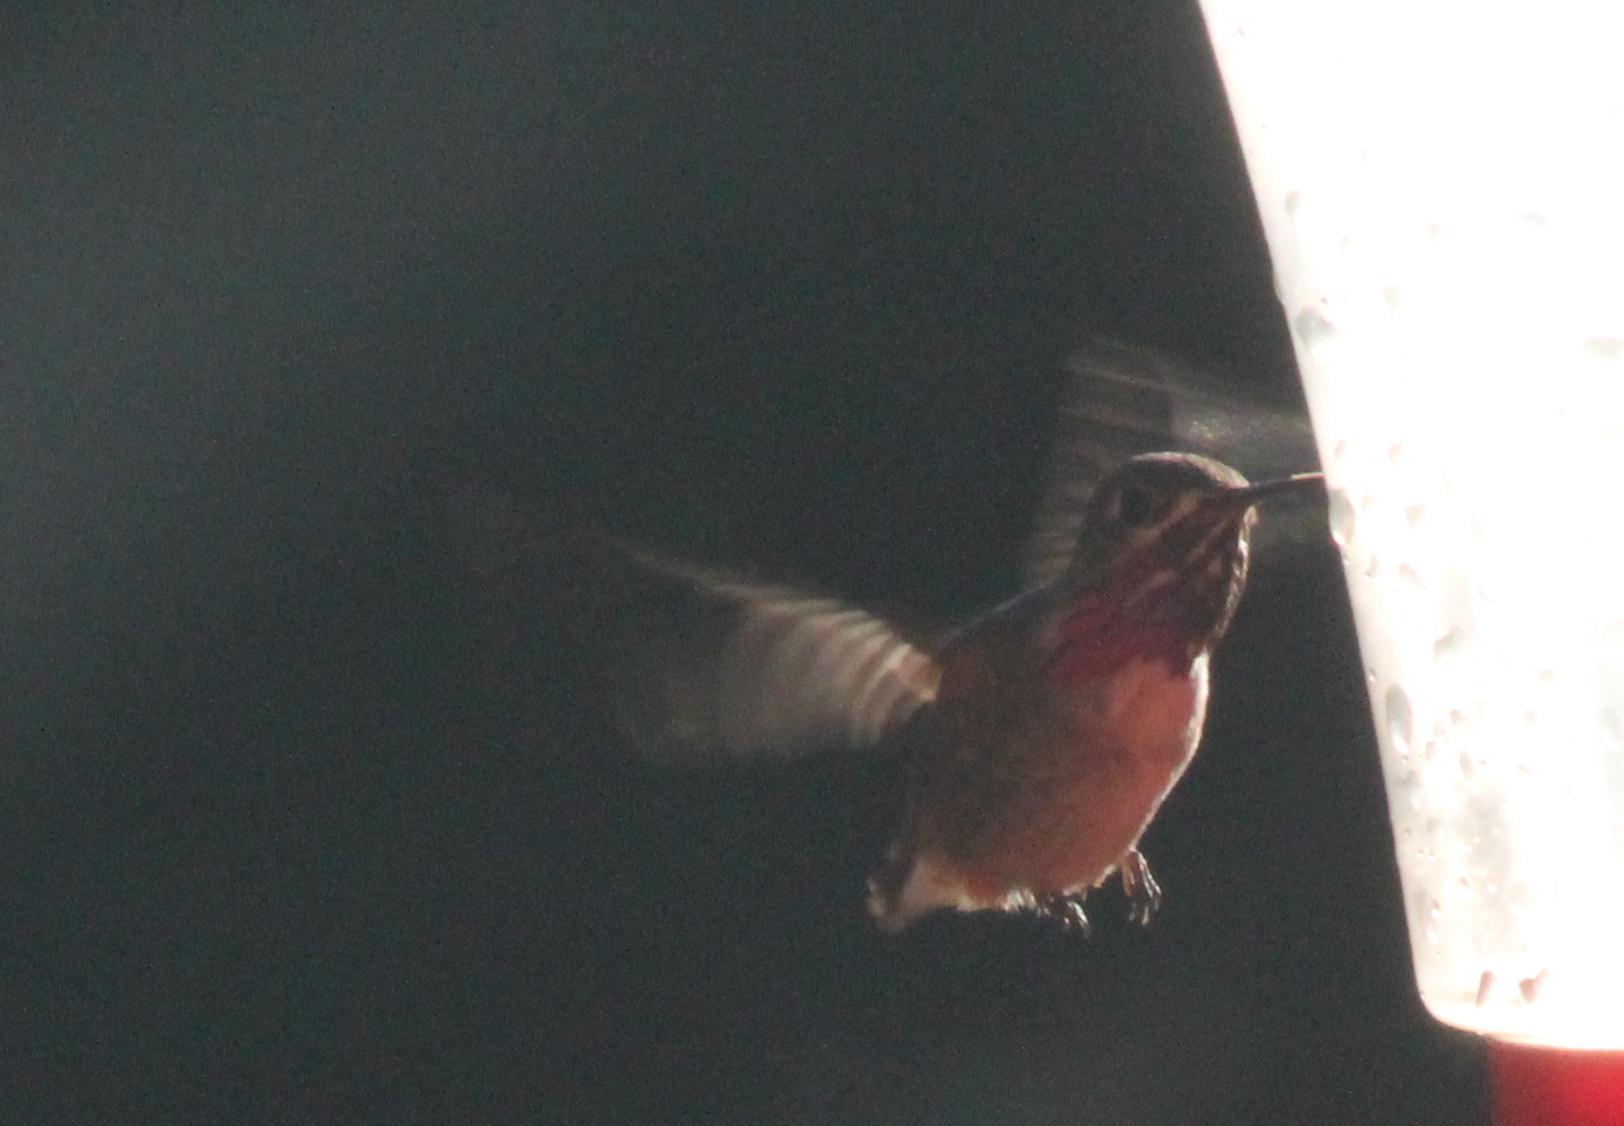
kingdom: Animalia
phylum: Chordata
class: Aves
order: Apodiformes
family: Trochilidae
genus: Selasphorus
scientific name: Selasphorus calliope
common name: Calliope hummingbird
